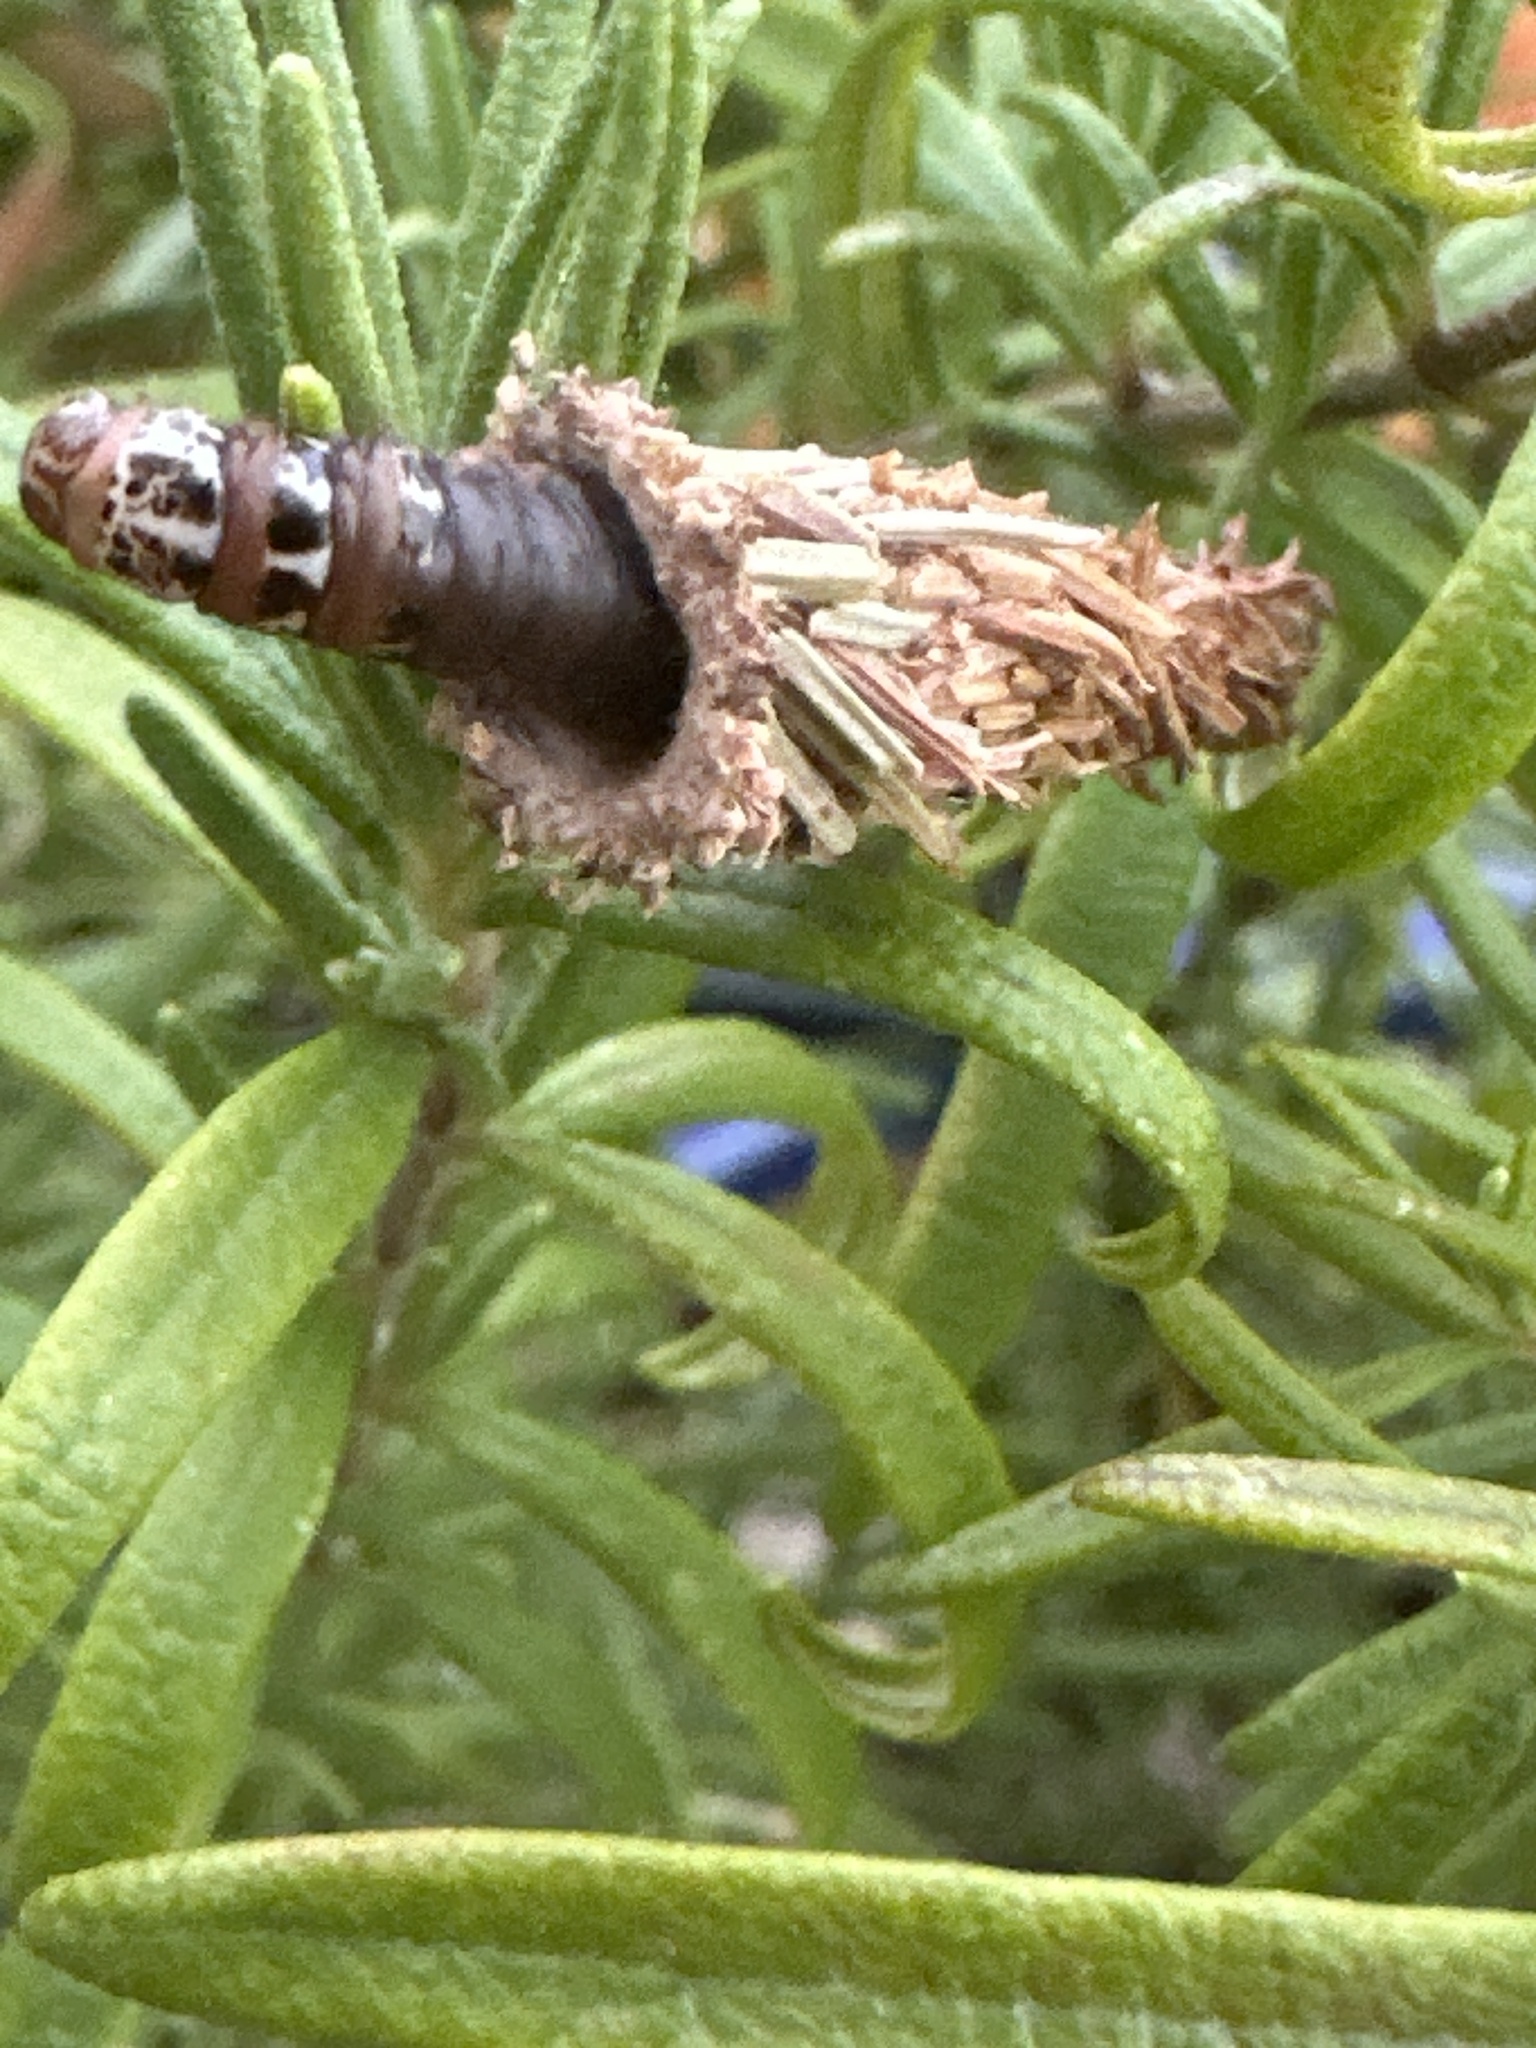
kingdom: Animalia
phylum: Arthropoda
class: Insecta
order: Lepidoptera
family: Psychidae
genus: Thyridopteryx
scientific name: Thyridopteryx ephemeraeformis
